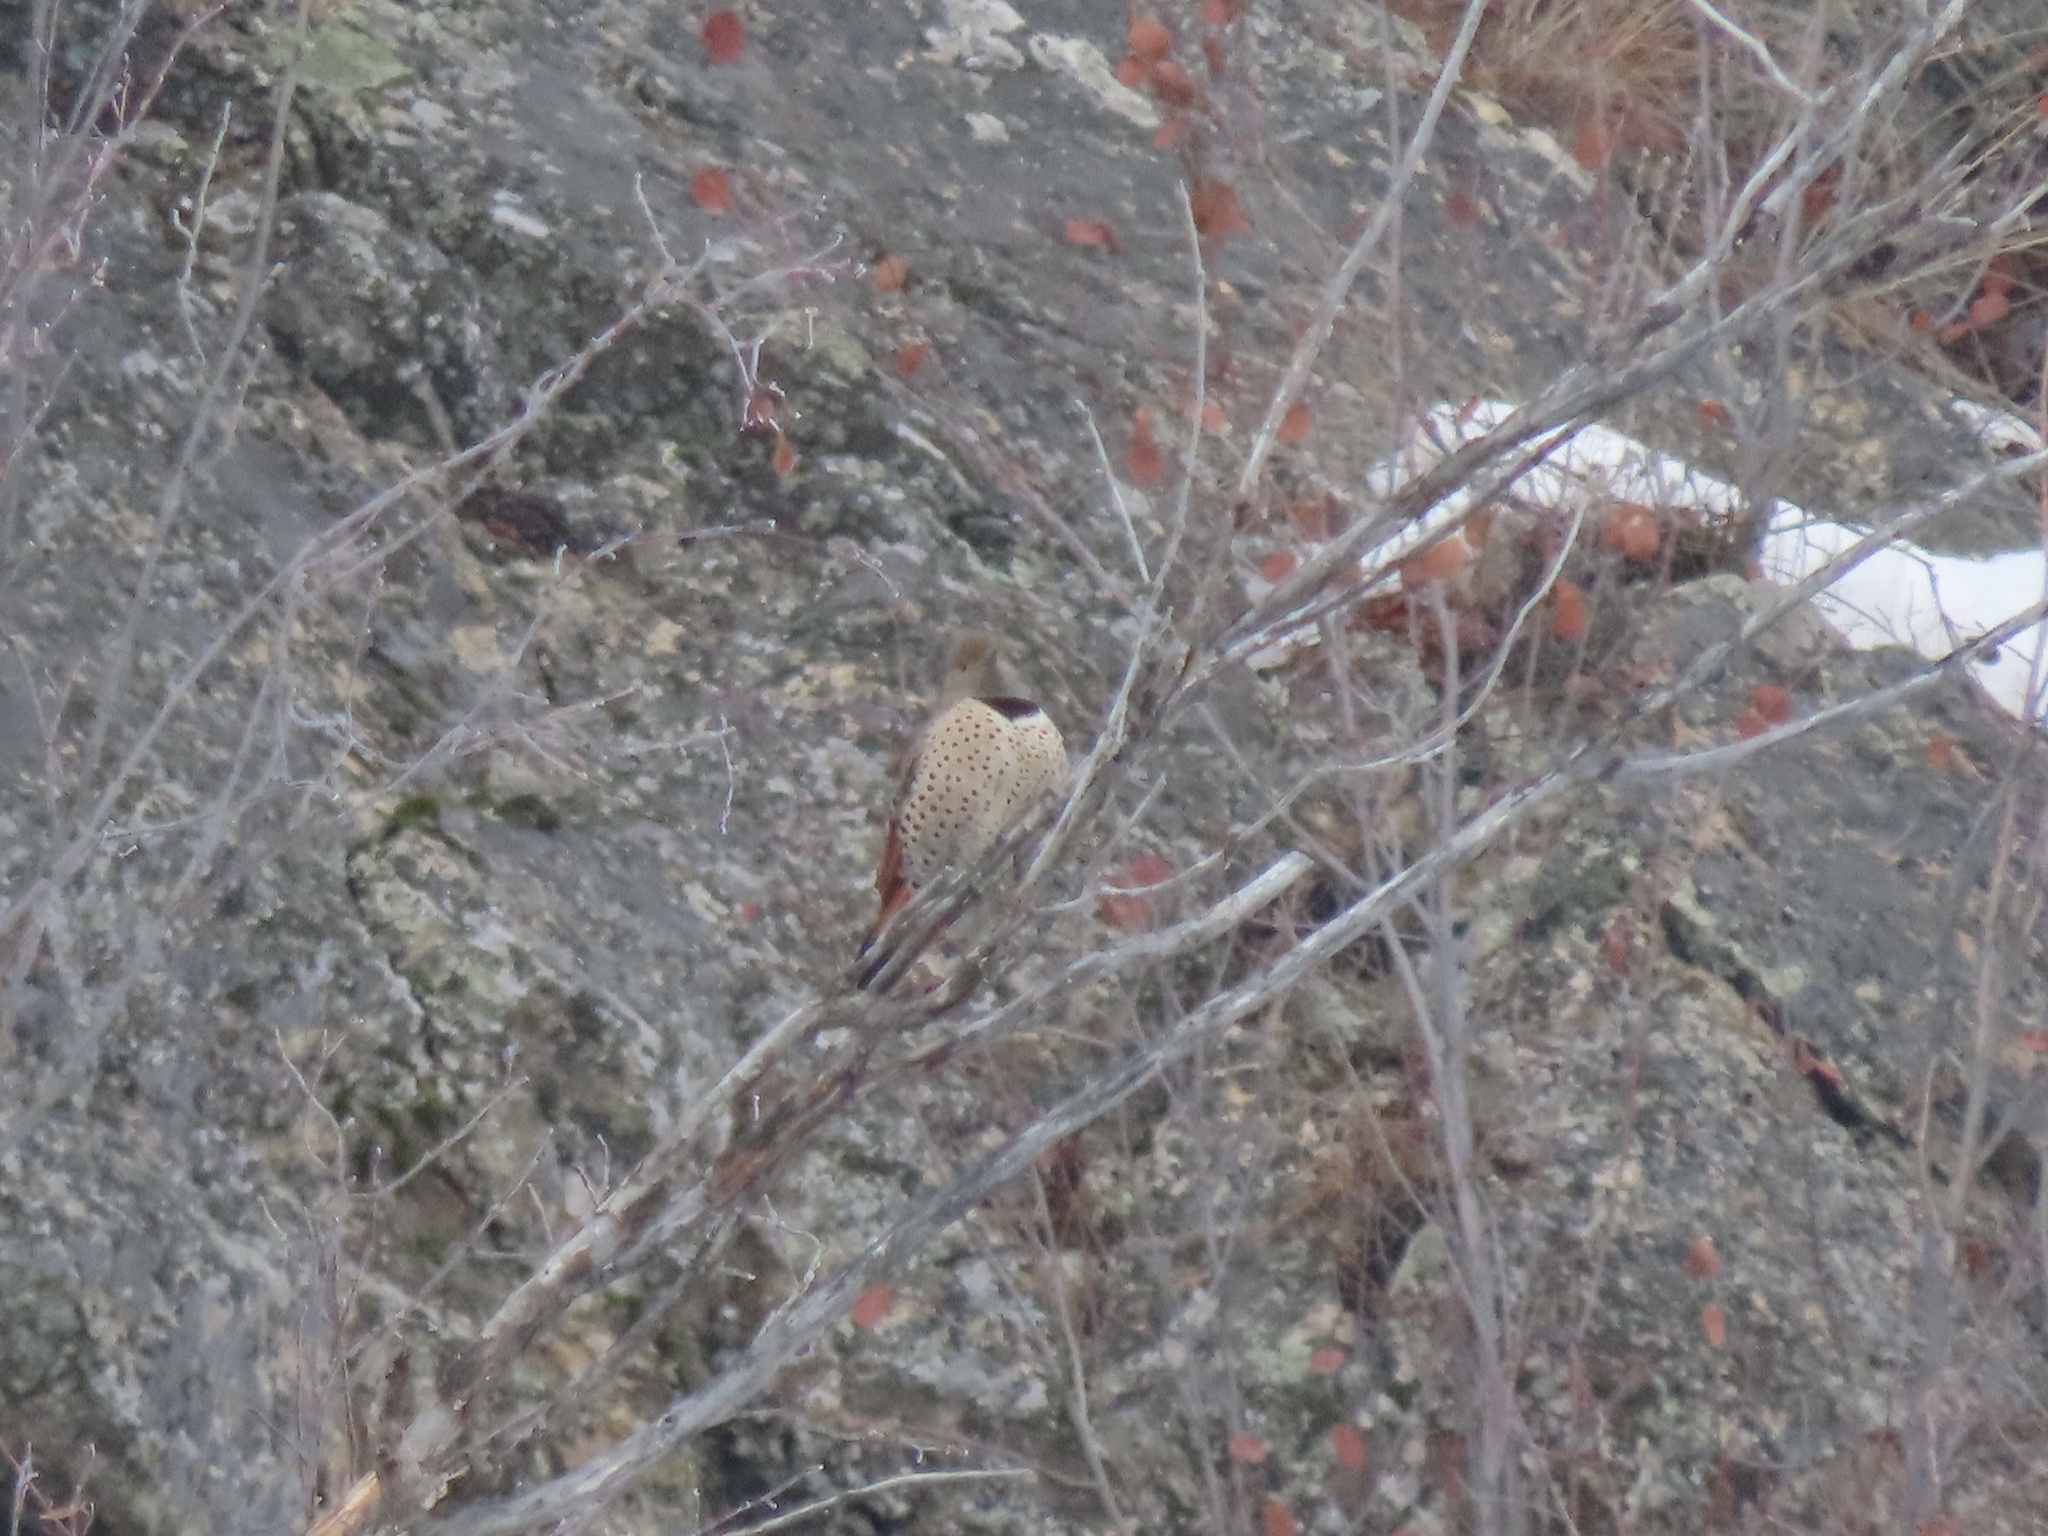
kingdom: Animalia
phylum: Chordata
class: Aves
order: Piciformes
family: Picidae
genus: Colaptes
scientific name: Colaptes auratus
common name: Northern flicker
